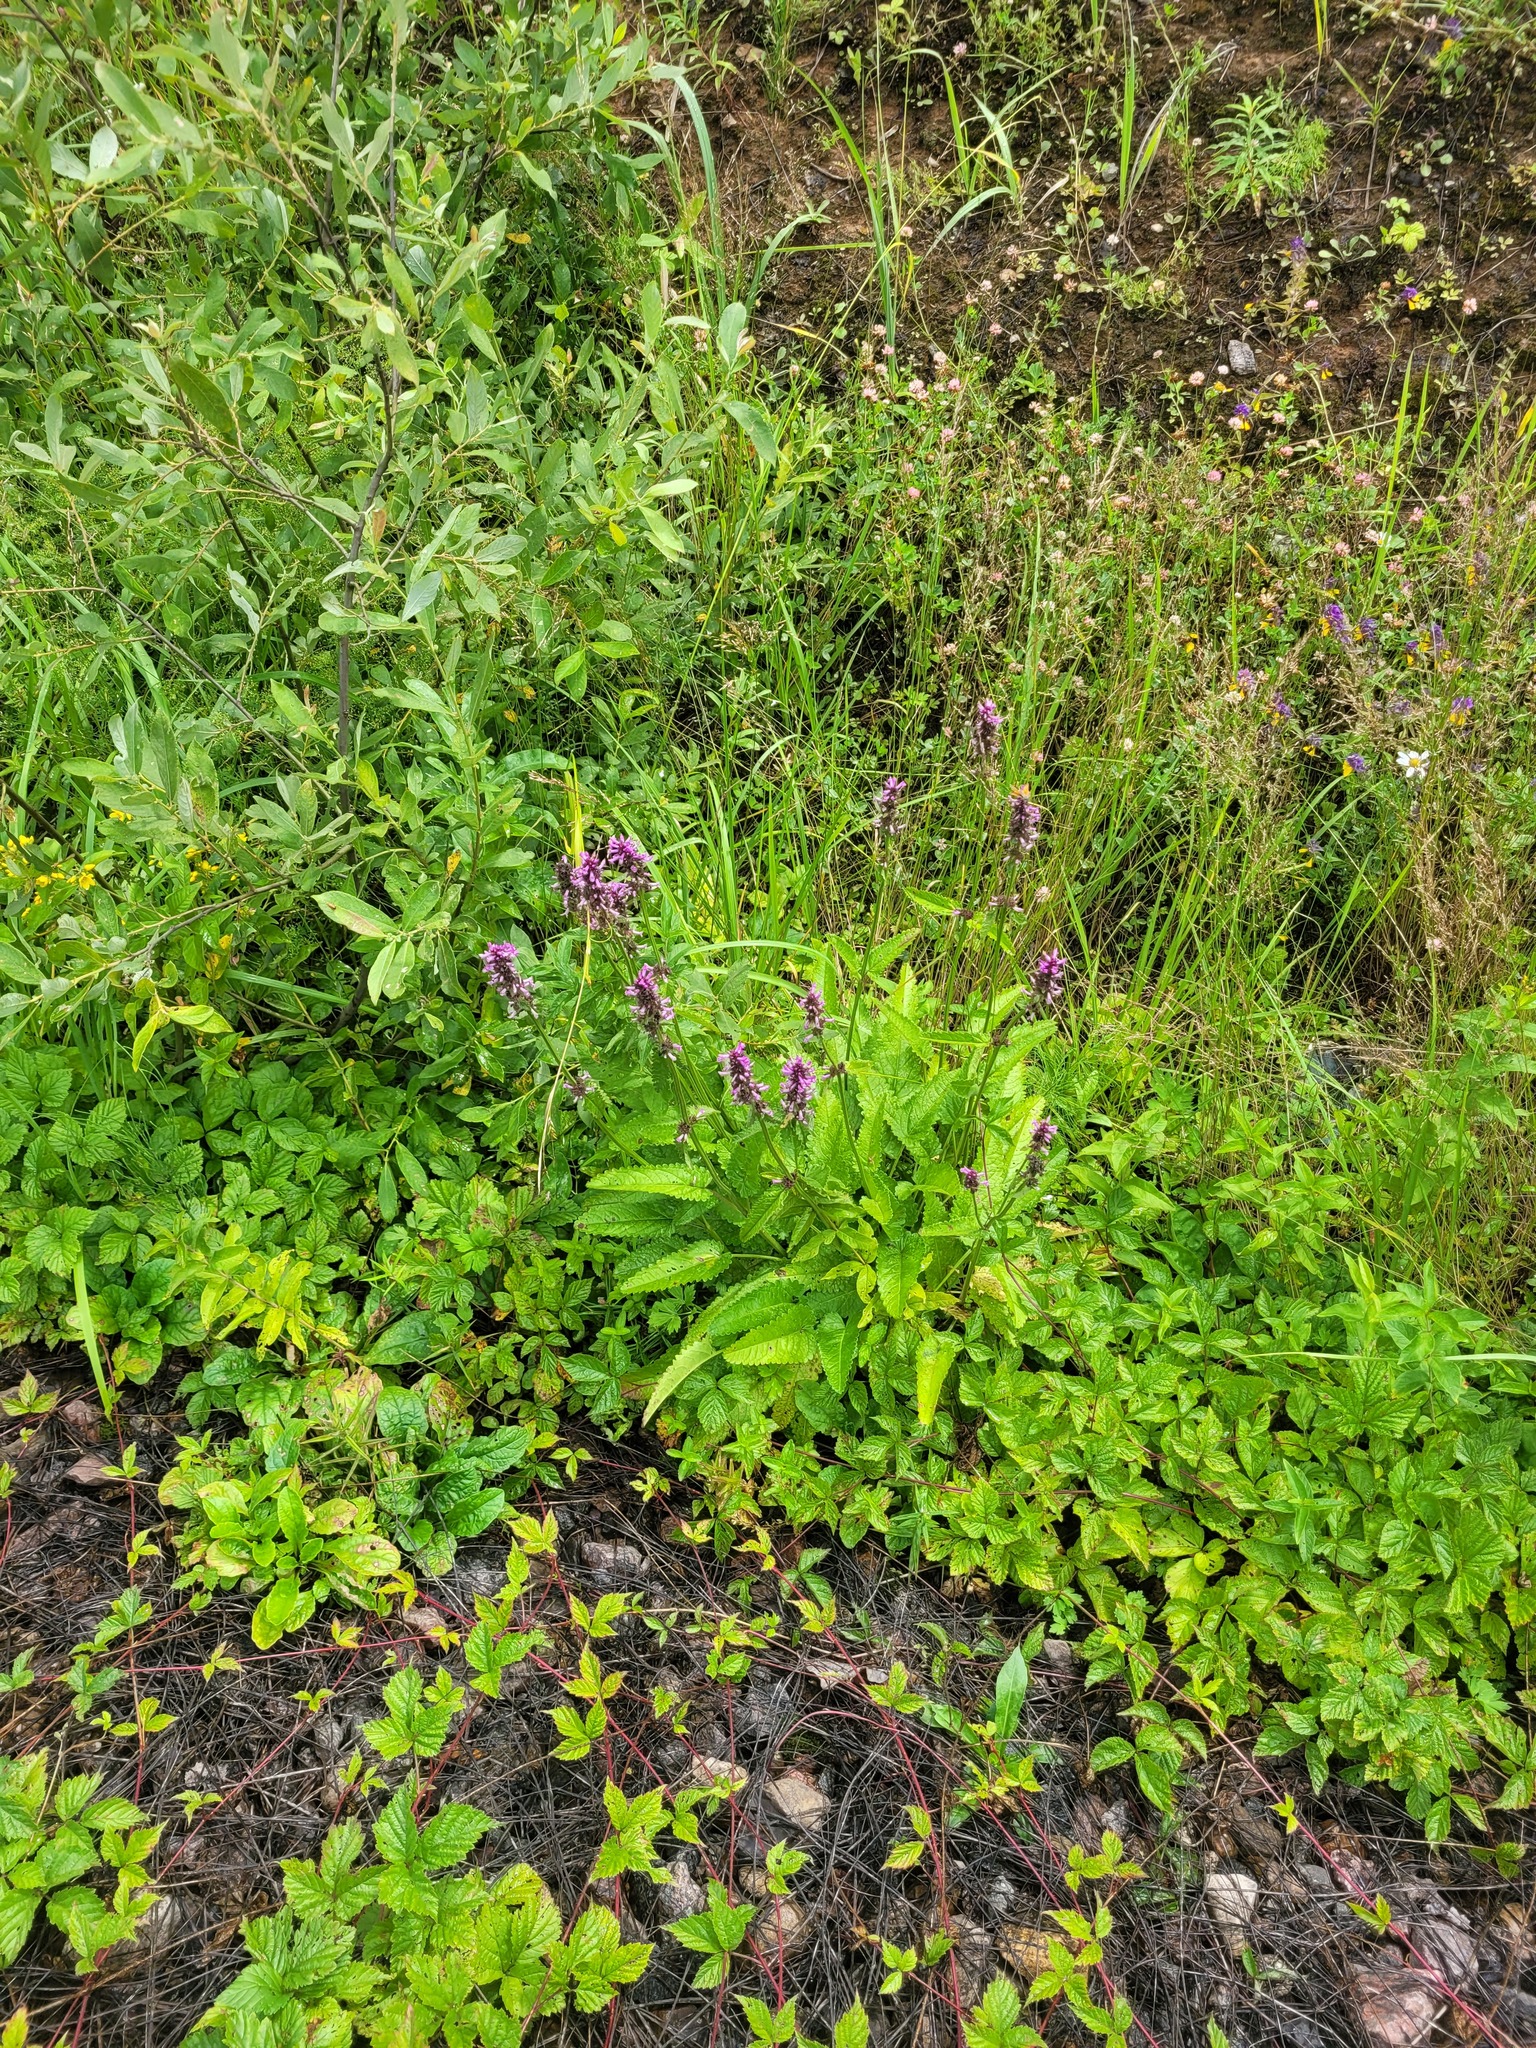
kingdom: Plantae
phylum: Tracheophyta
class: Magnoliopsida
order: Lamiales
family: Lamiaceae
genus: Betonica
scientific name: Betonica officinalis
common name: Bishop's-wort
